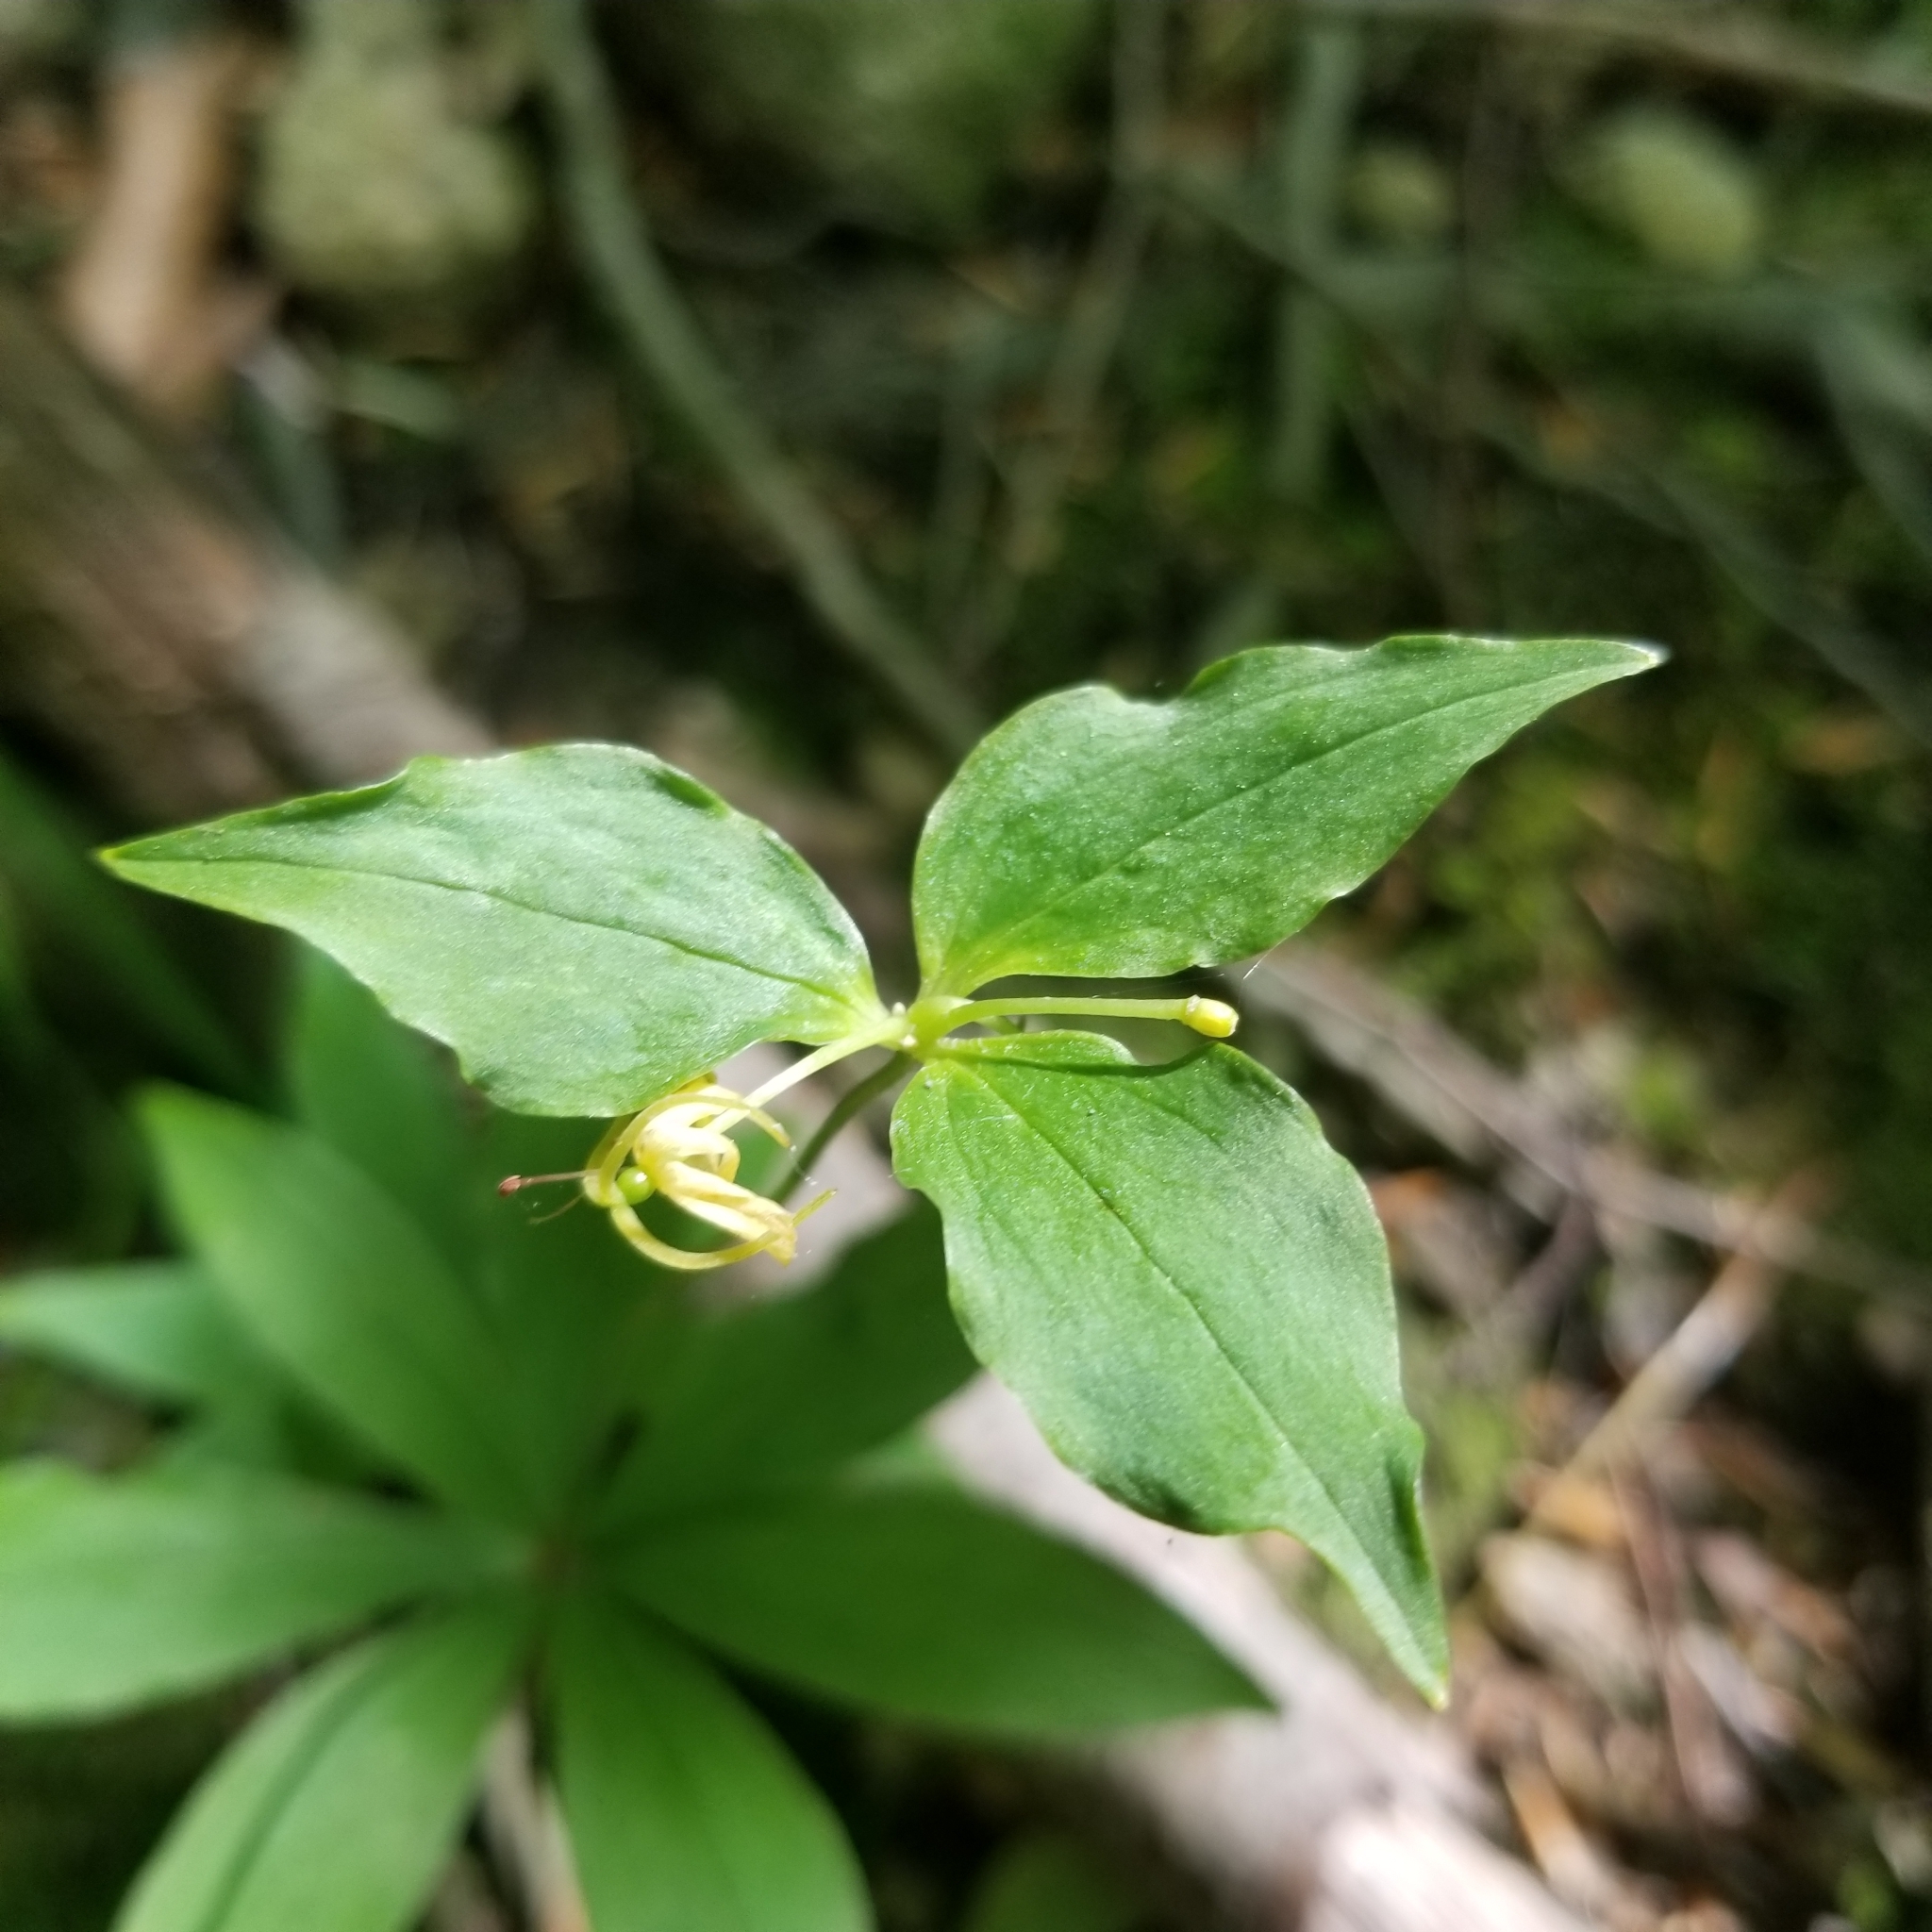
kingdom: Plantae
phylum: Tracheophyta
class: Liliopsida
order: Liliales
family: Liliaceae
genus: Medeola
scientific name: Medeola virginiana
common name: Indian cucumber-root
